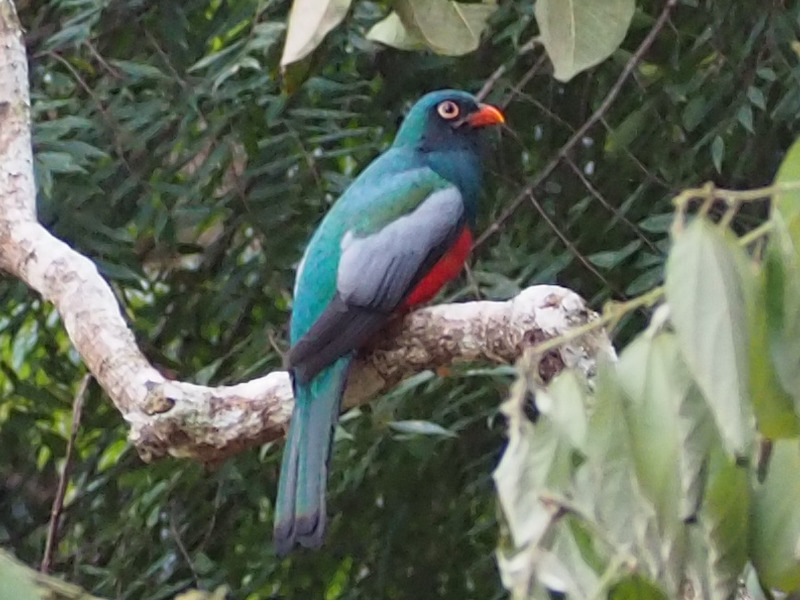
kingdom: Animalia
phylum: Chordata
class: Aves
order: Trogoniformes
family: Trogonidae
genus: Trogon
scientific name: Trogon massena
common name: Slaty-tailed trogon
